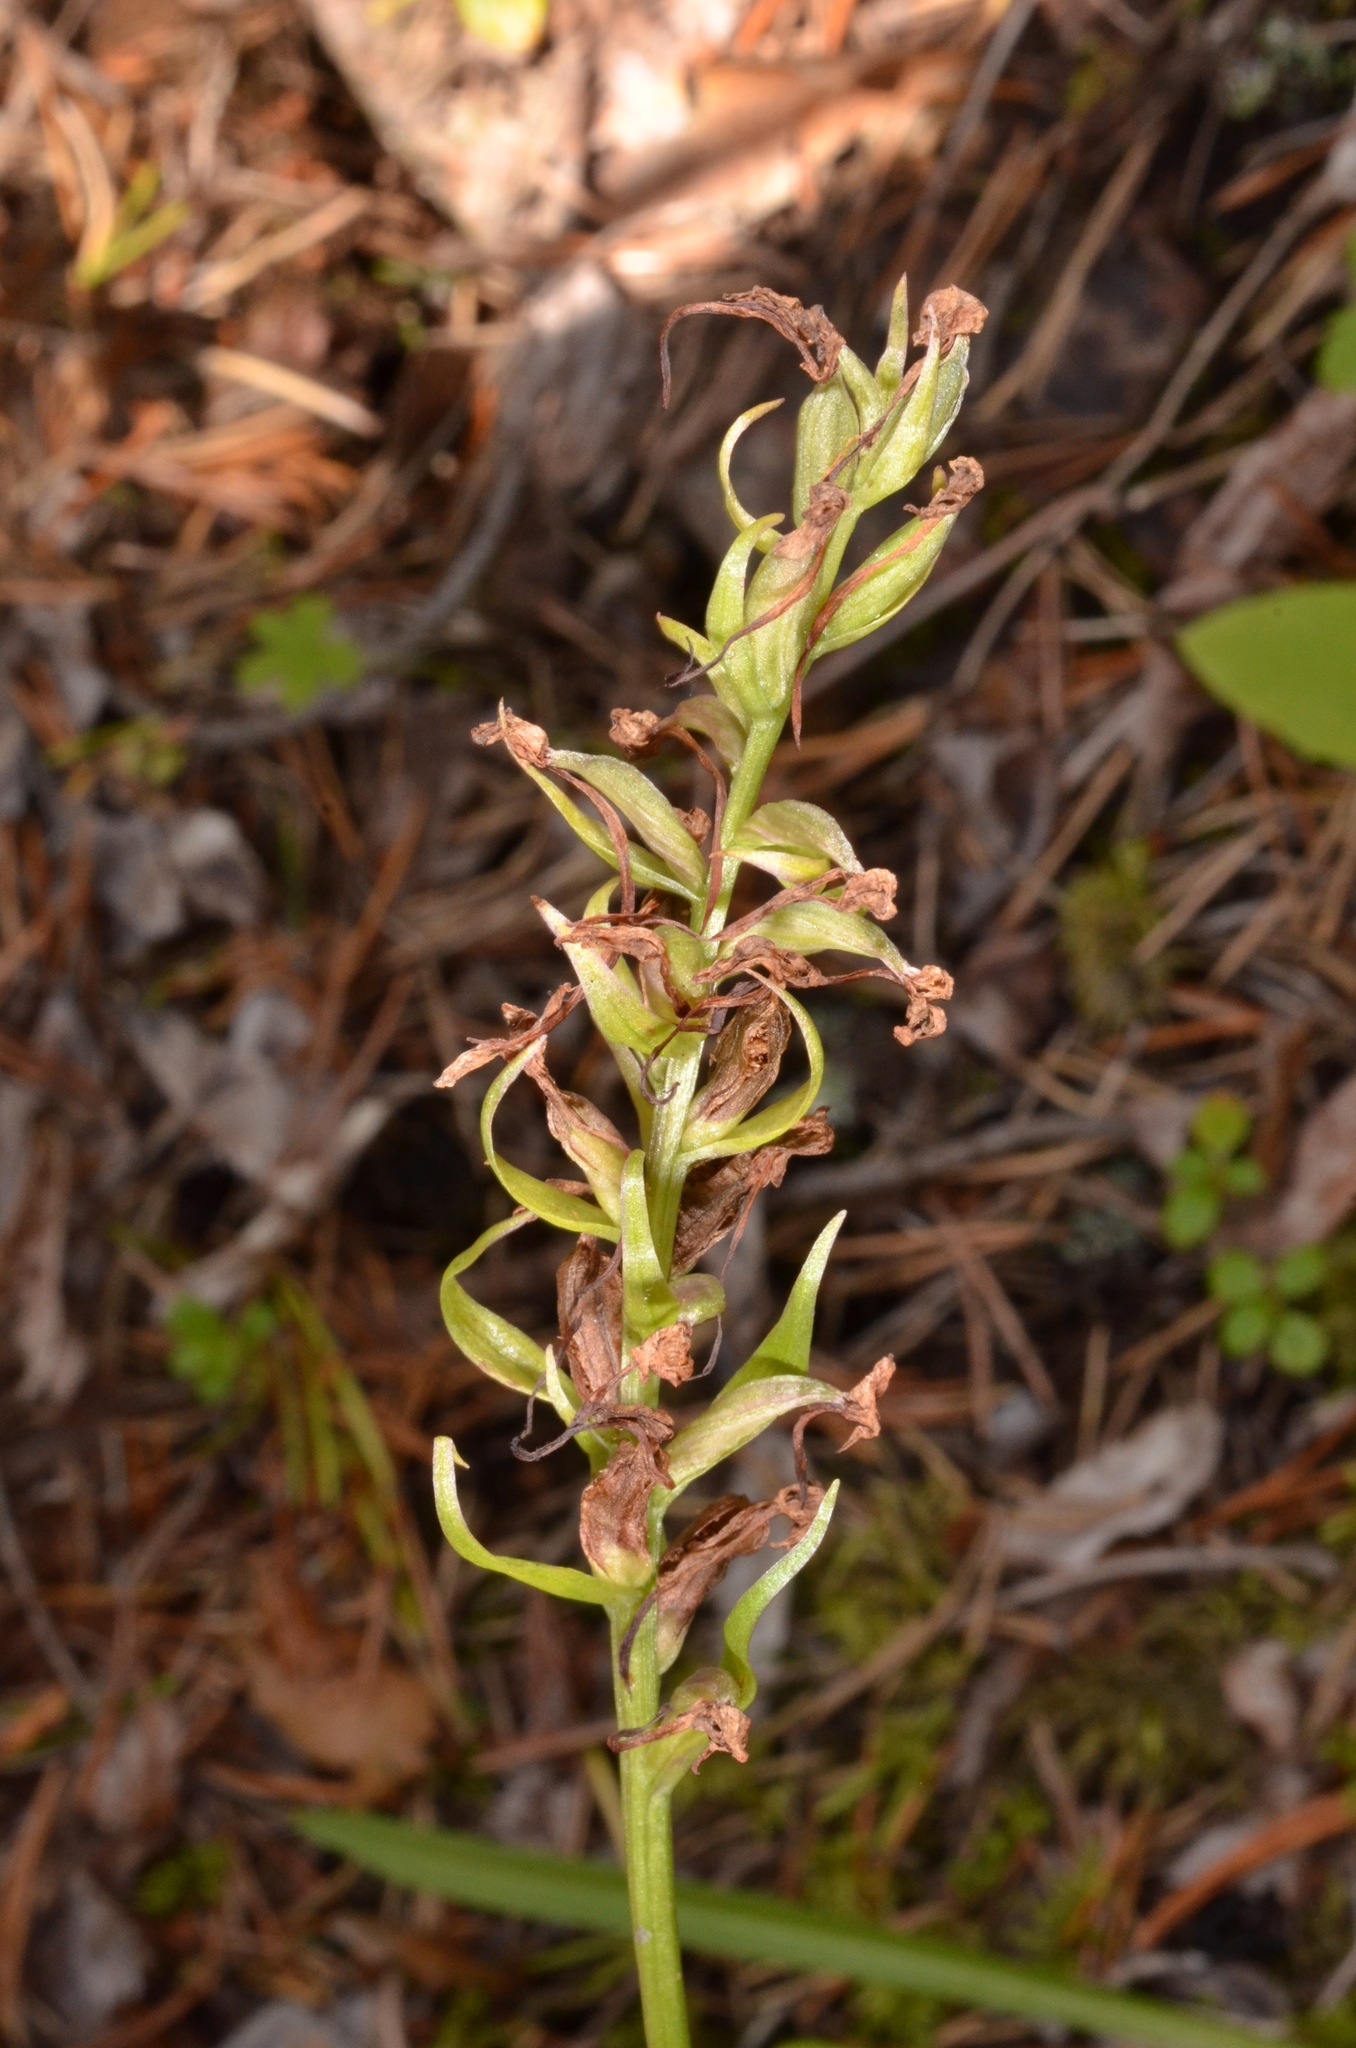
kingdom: Plantae
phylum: Tracheophyta
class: Liliopsida
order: Asparagales
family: Orchidaceae
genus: Gymnadenia
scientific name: Gymnadenia conopsea
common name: Fragrant orchid
